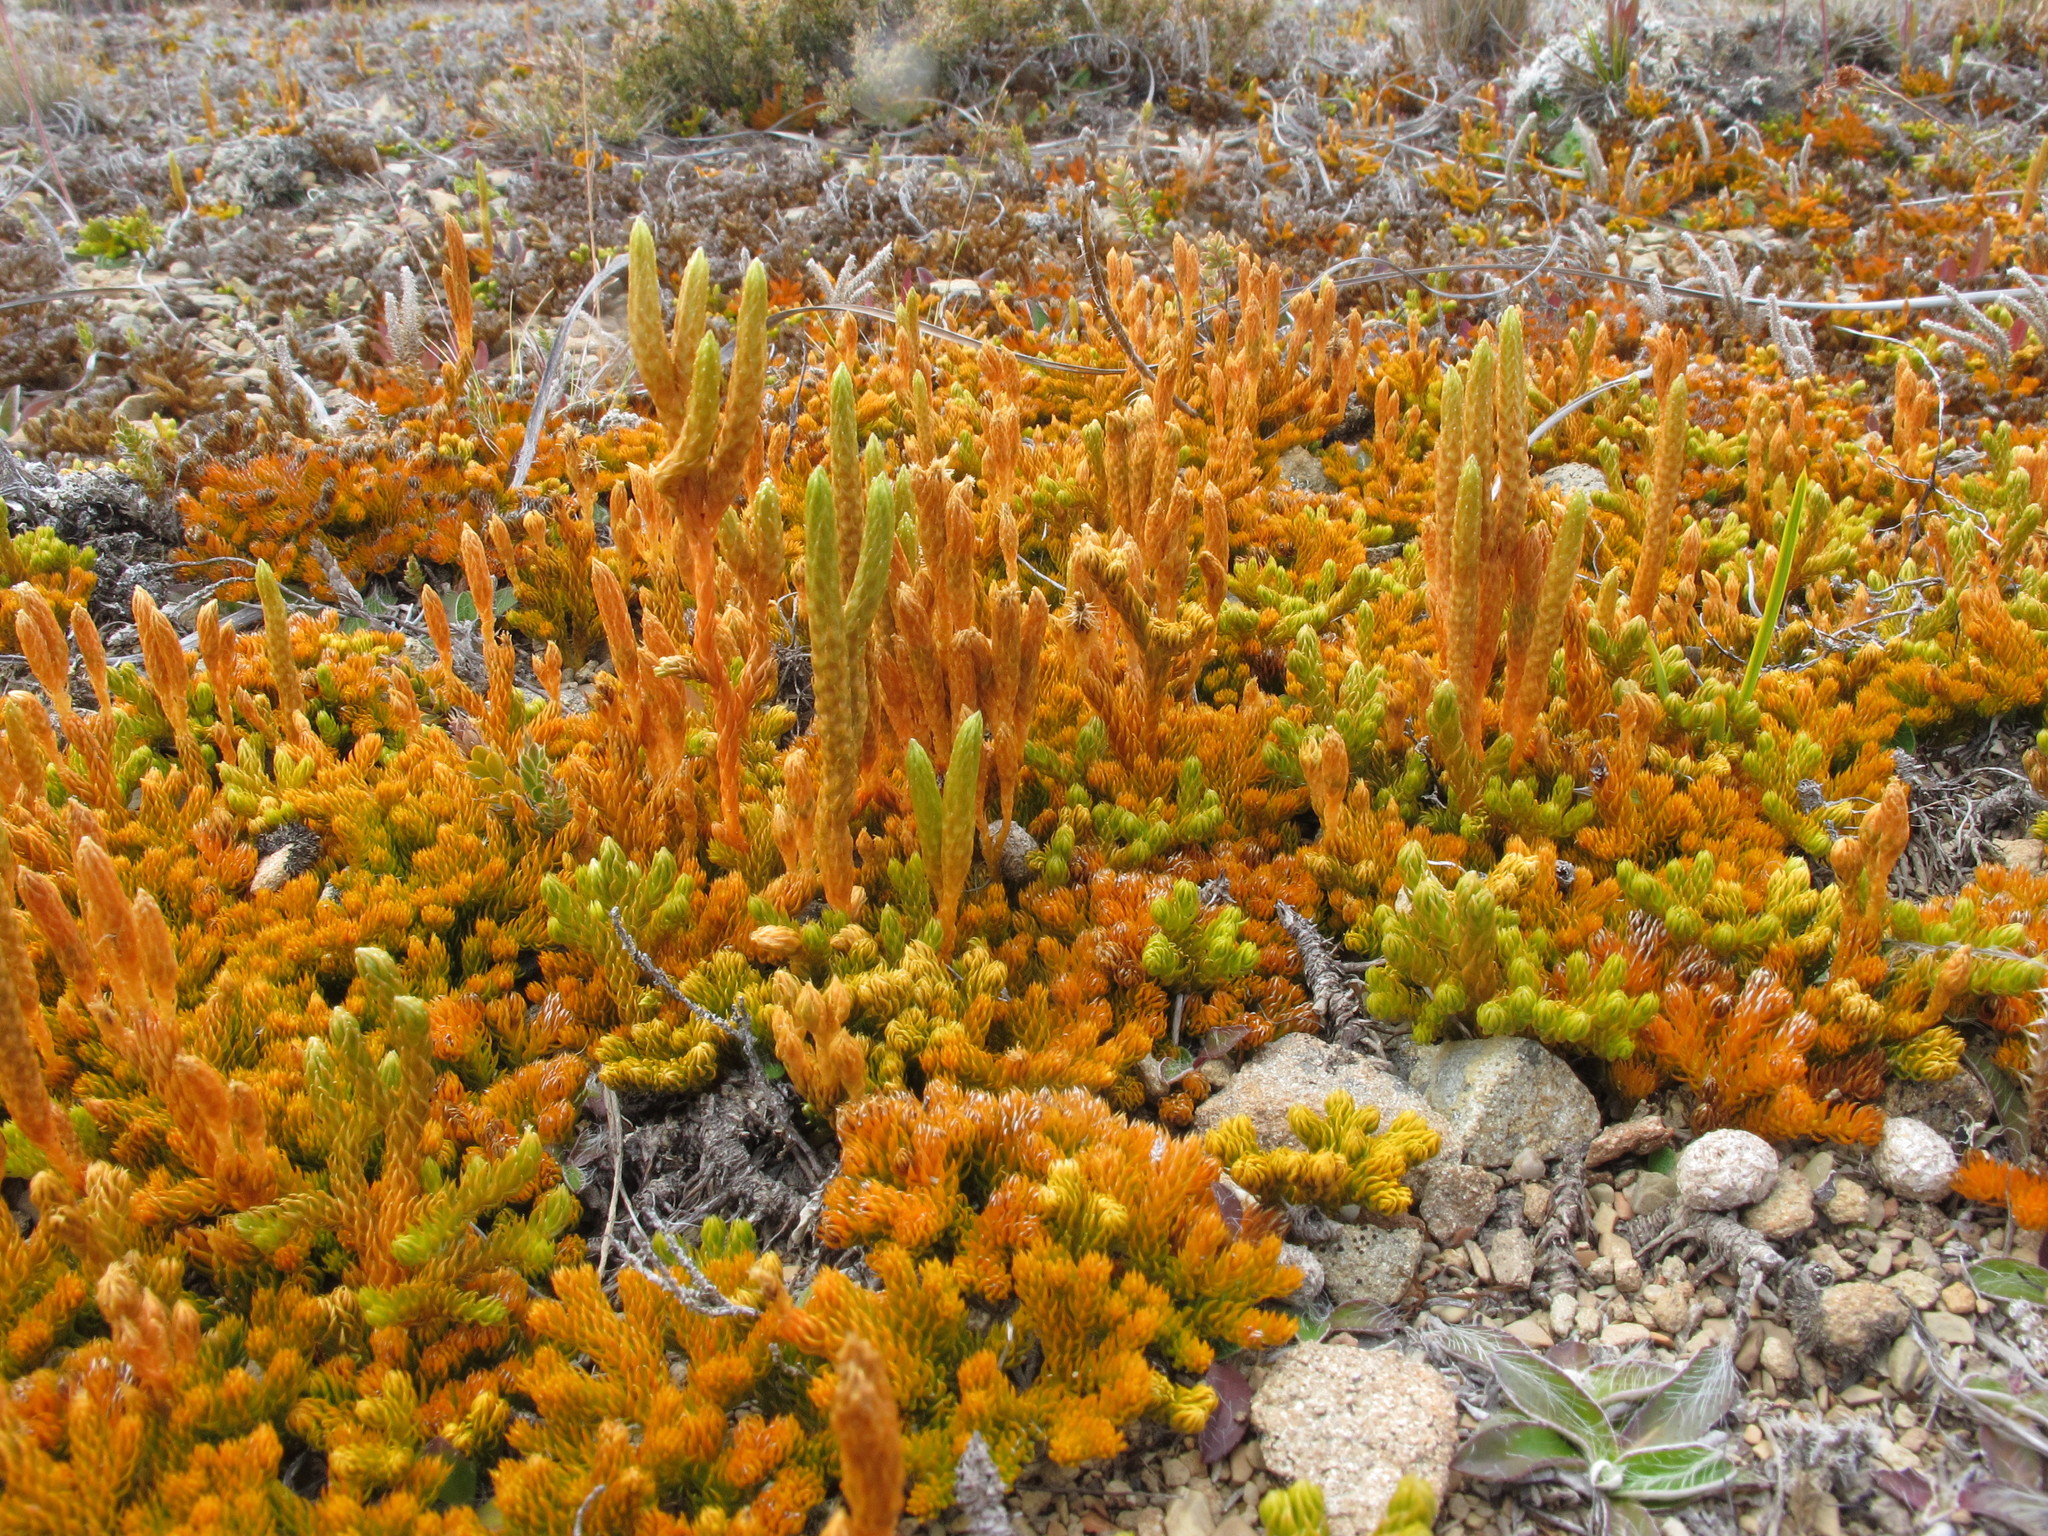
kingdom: Plantae
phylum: Tracheophyta
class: Lycopodiopsida
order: Lycopodiales
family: Lycopodiaceae
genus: Austrolycopodium
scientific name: Austrolycopodium fastigiatum
